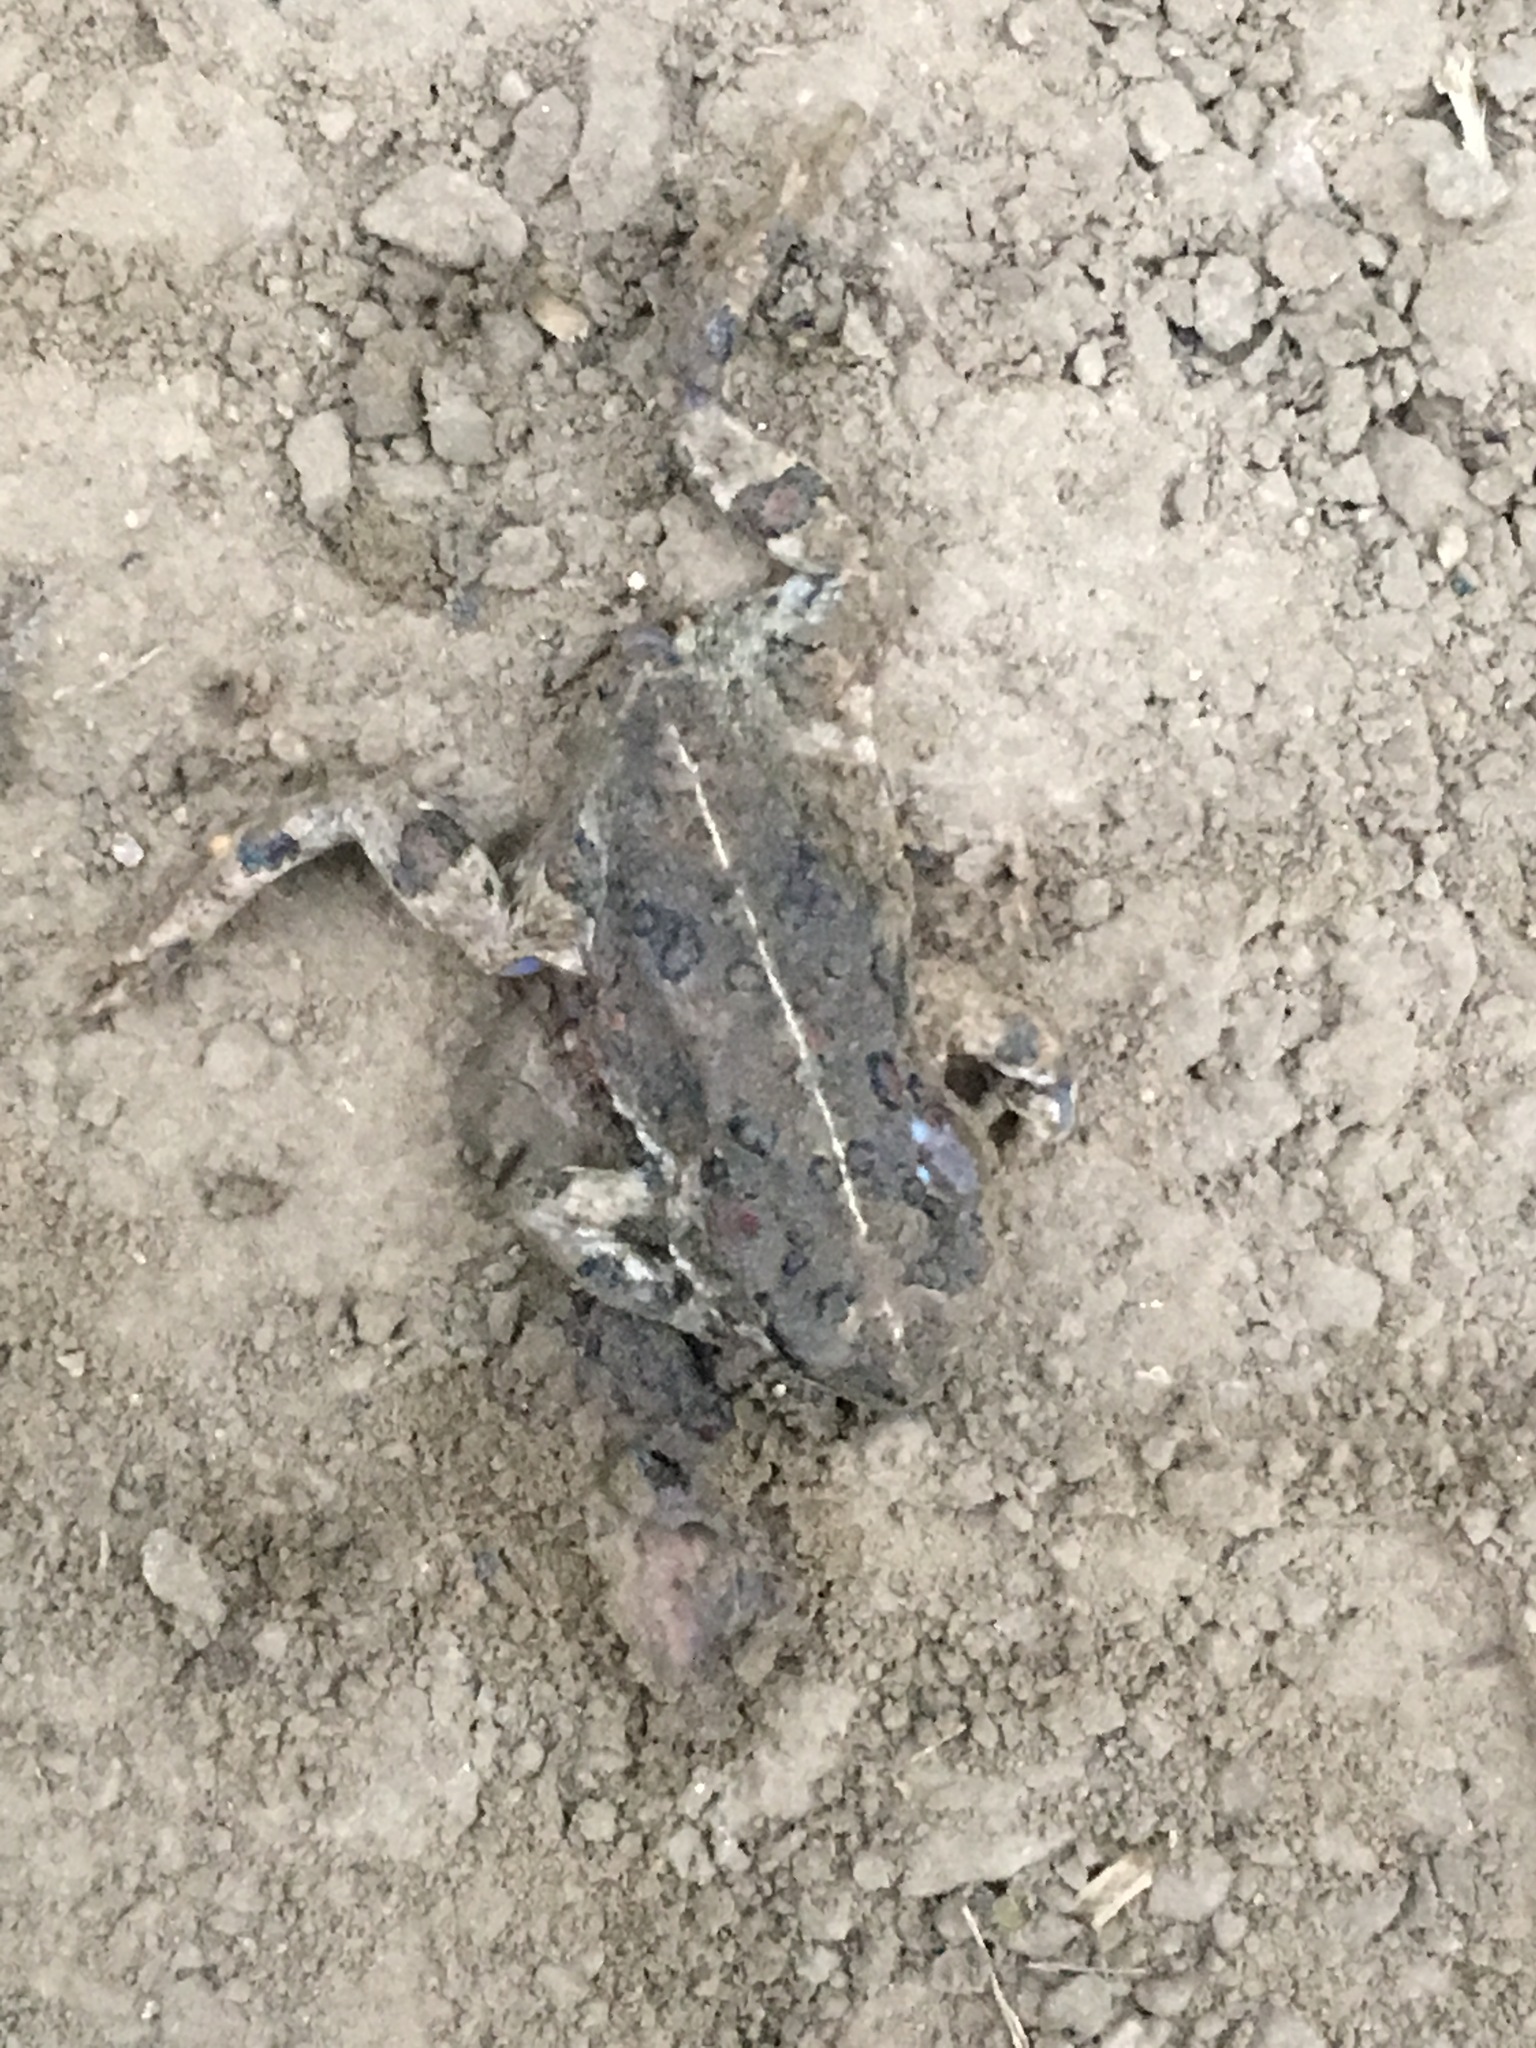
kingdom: Animalia
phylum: Chordata
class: Amphibia
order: Anura
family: Bufonidae
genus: Anaxyrus
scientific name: Anaxyrus boreas
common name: Western toad
